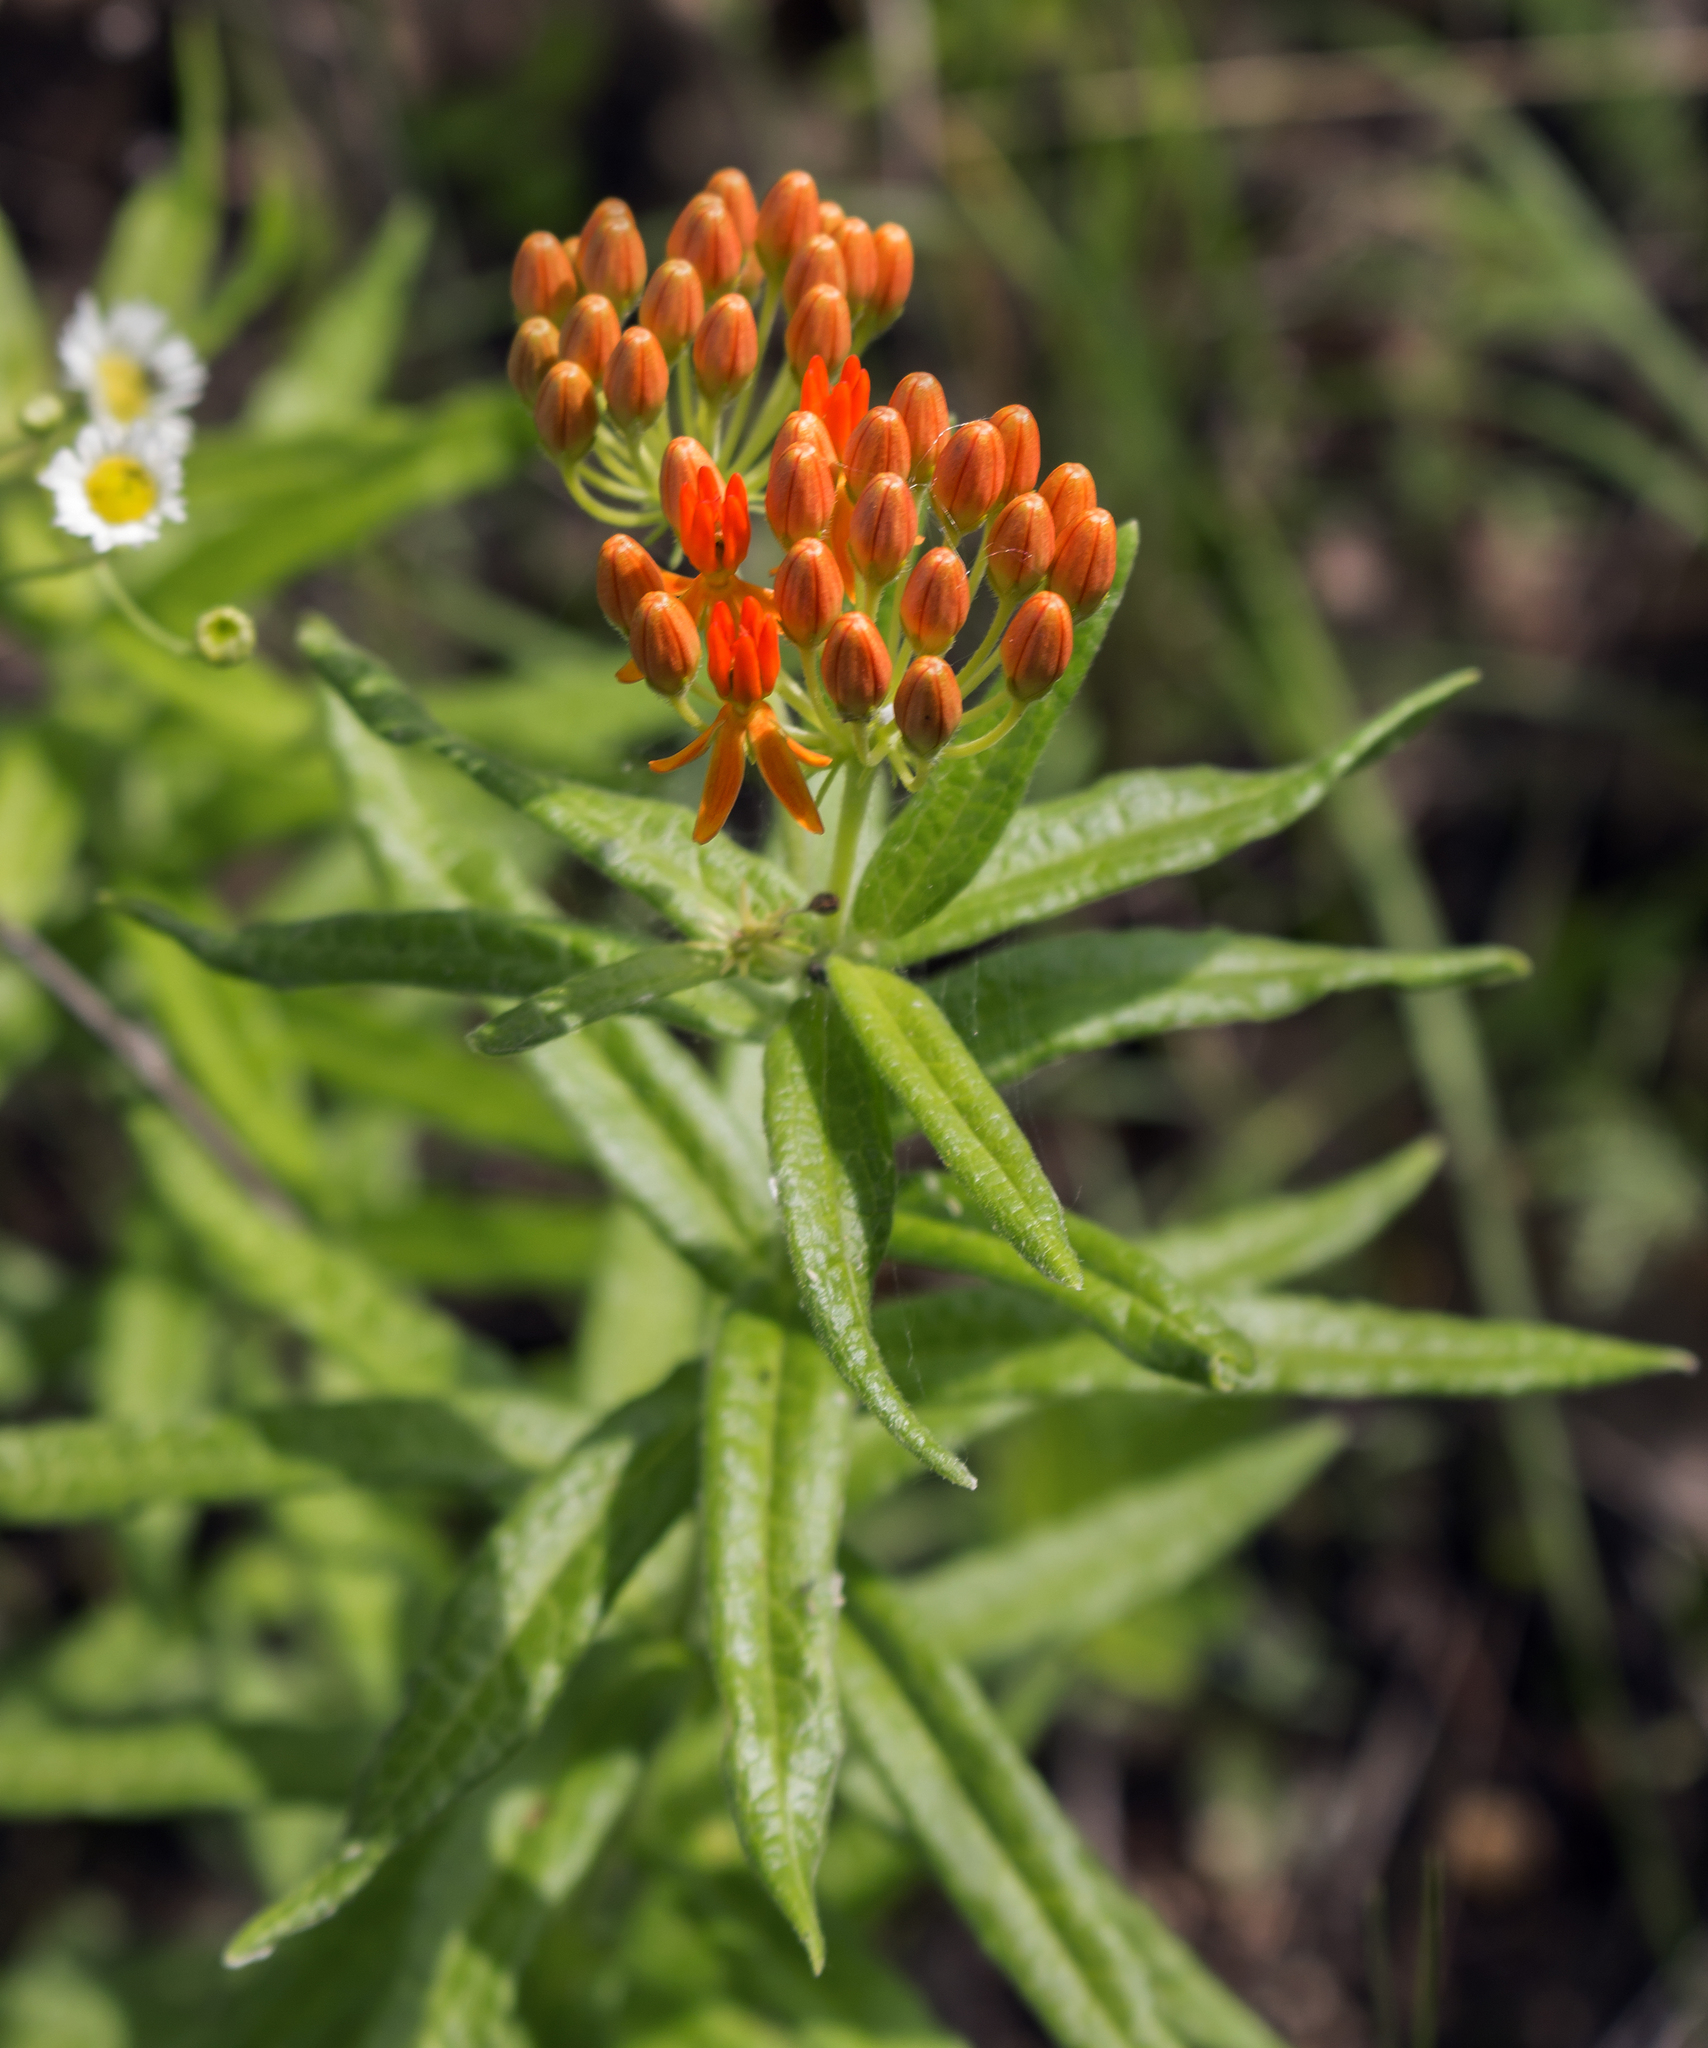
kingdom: Plantae
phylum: Tracheophyta
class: Magnoliopsida
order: Gentianales
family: Apocynaceae
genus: Asclepias
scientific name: Asclepias tuberosa
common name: Butterfly milkweed
